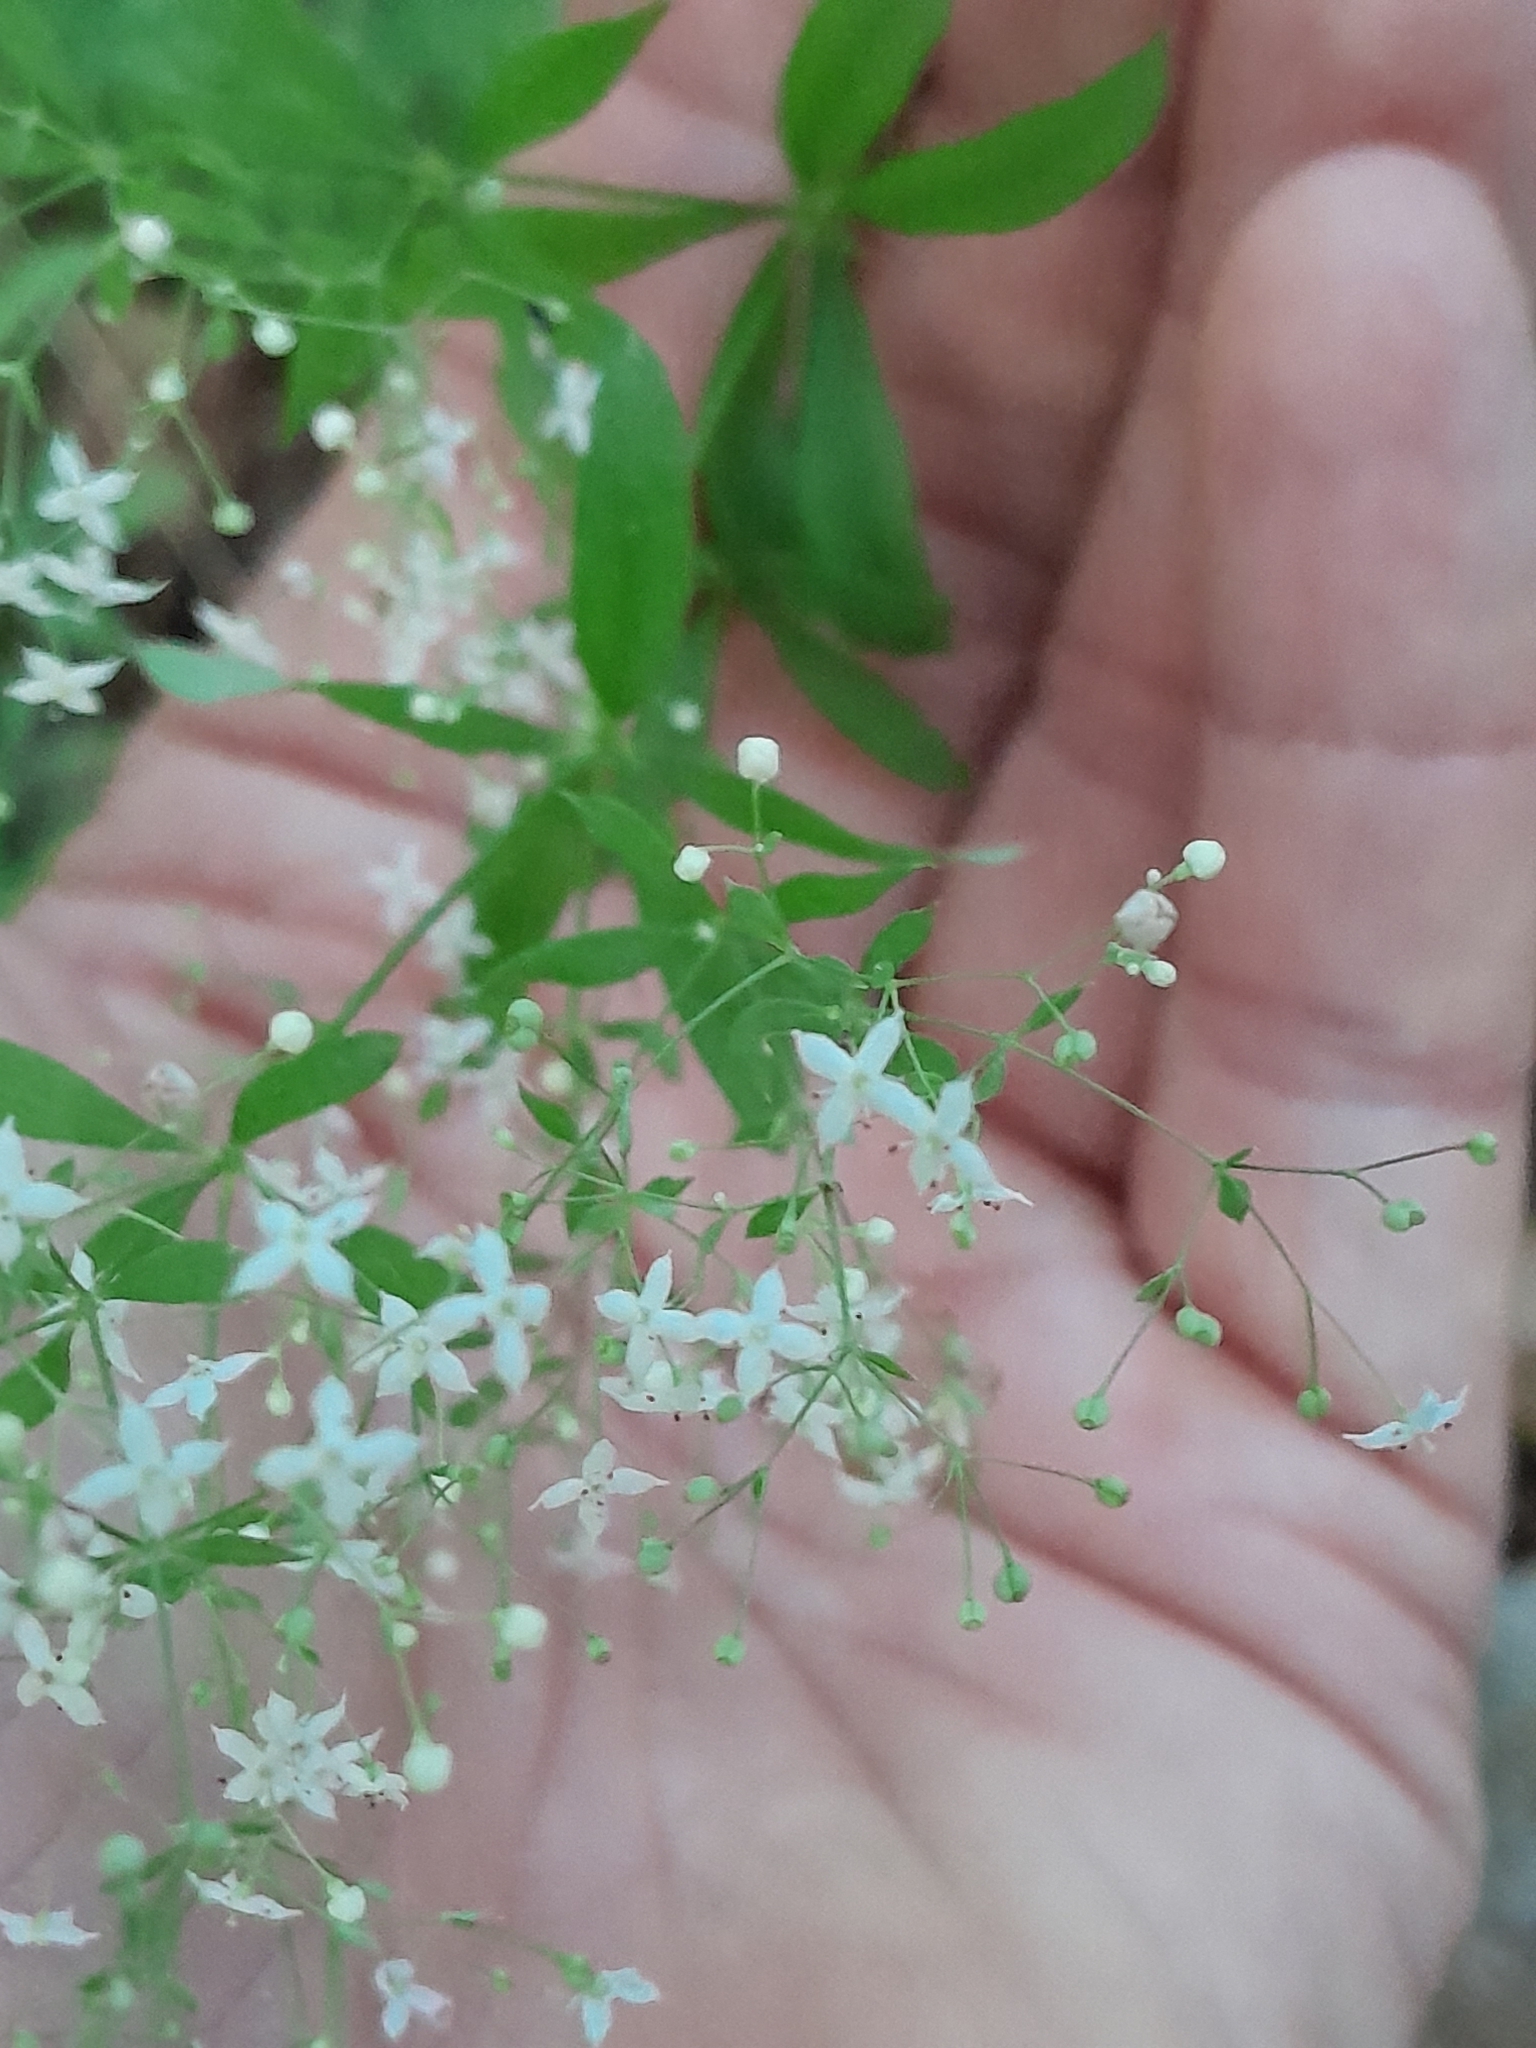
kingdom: Plantae
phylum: Tracheophyta
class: Magnoliopsida
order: Gentianales
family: Rubiaceae
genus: Galium
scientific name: Galium intermedium
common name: Bedstraw
